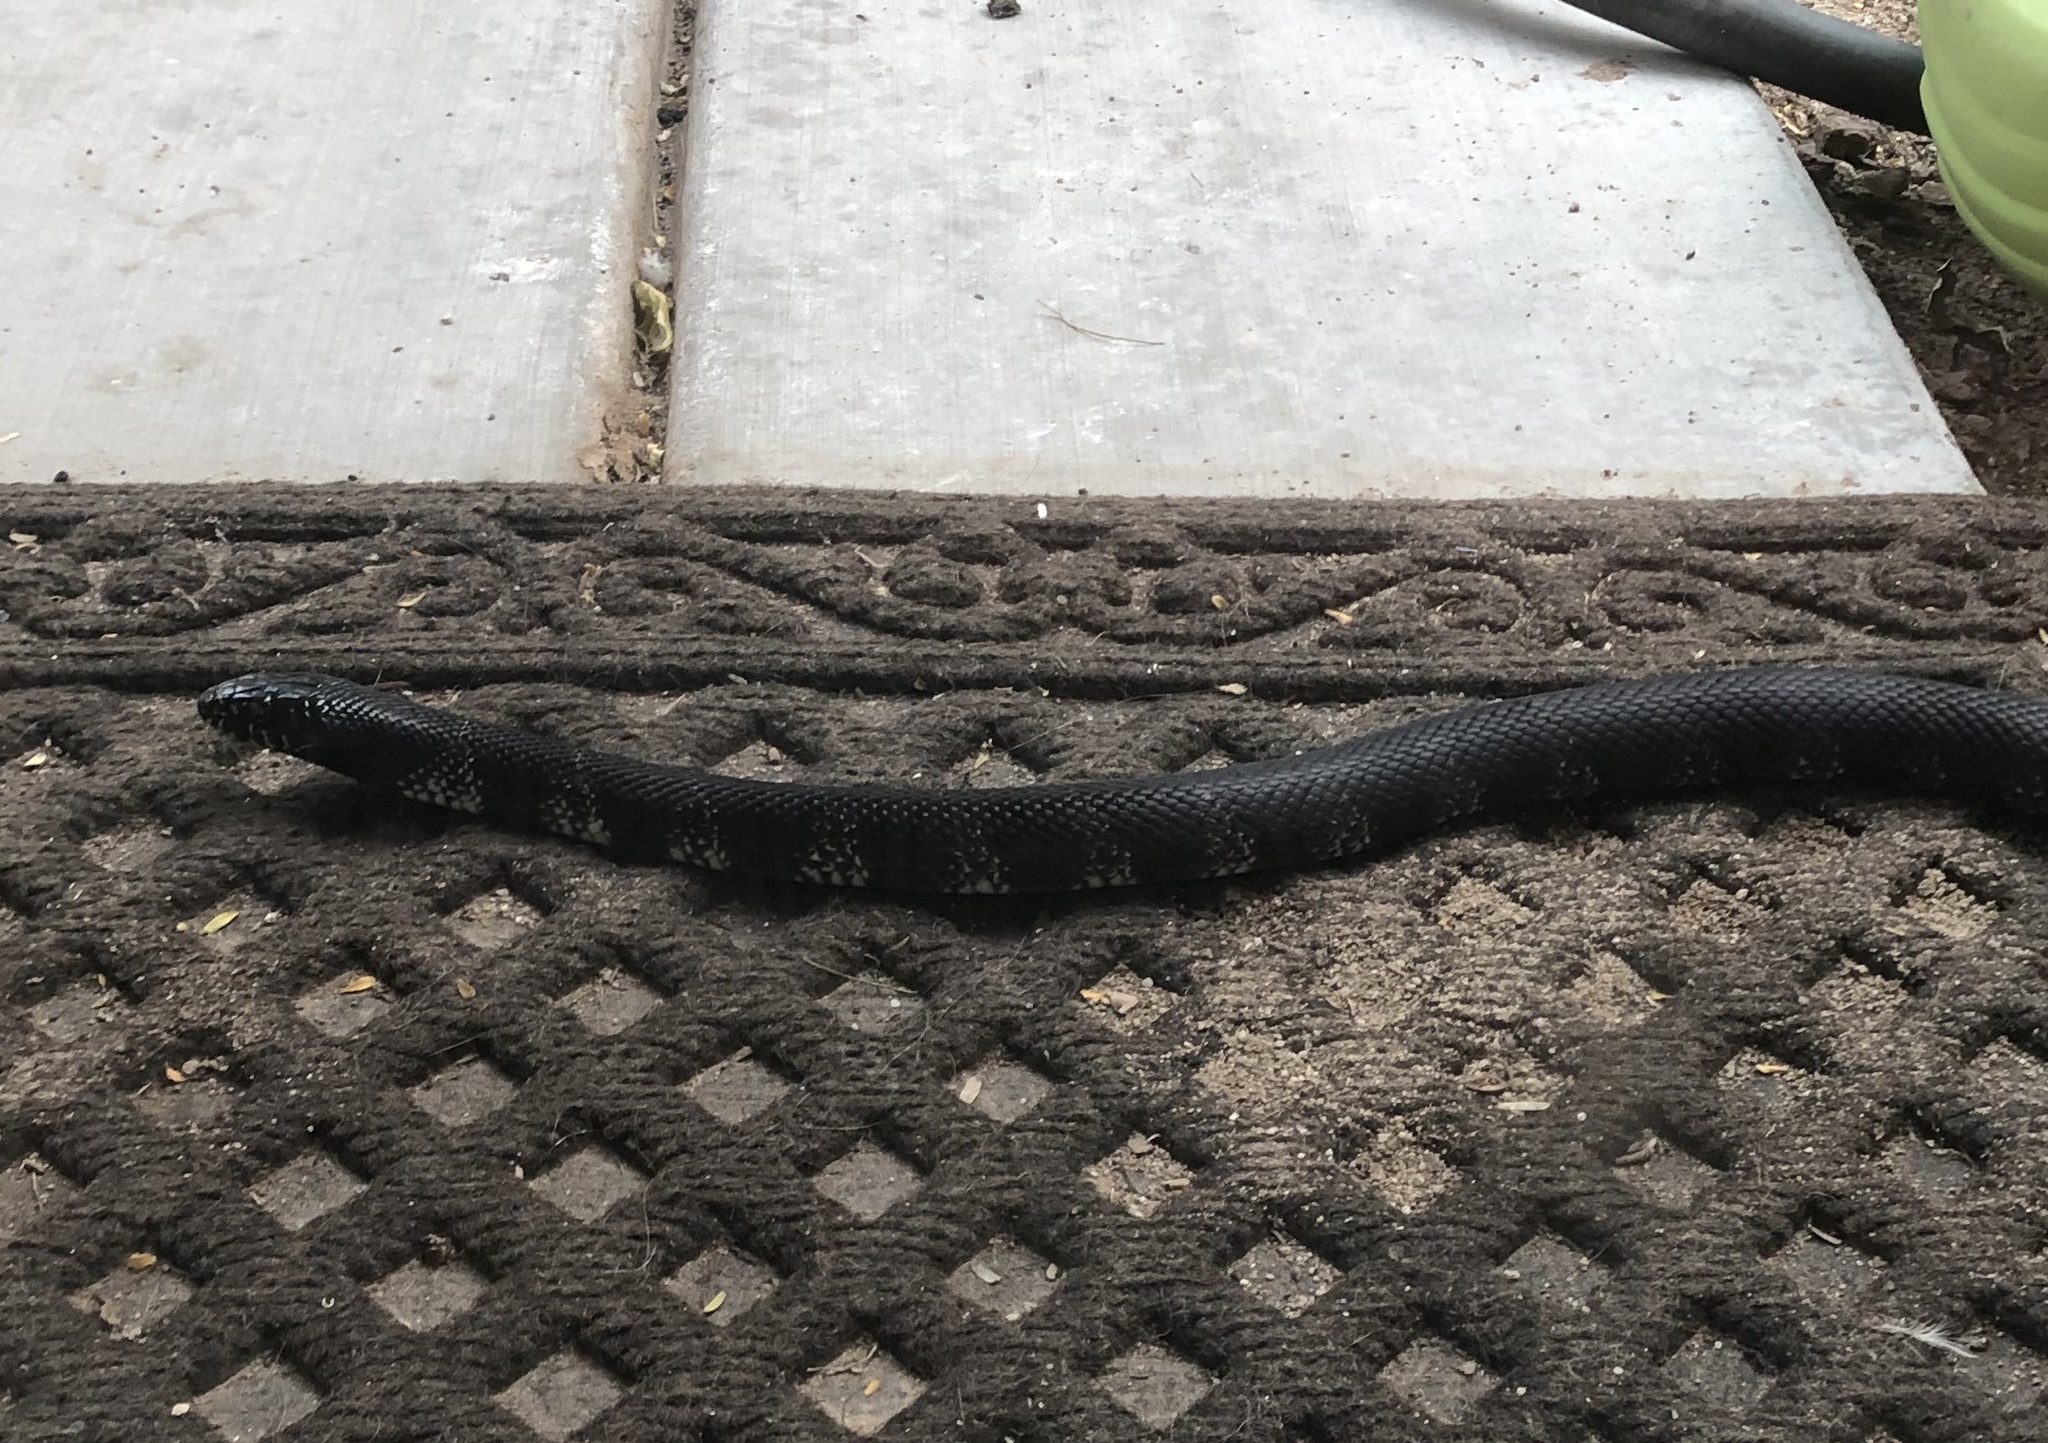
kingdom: Animalia
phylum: Chordata
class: Squamata
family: Colubridae
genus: Lampropeltis
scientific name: Lampropeltis
